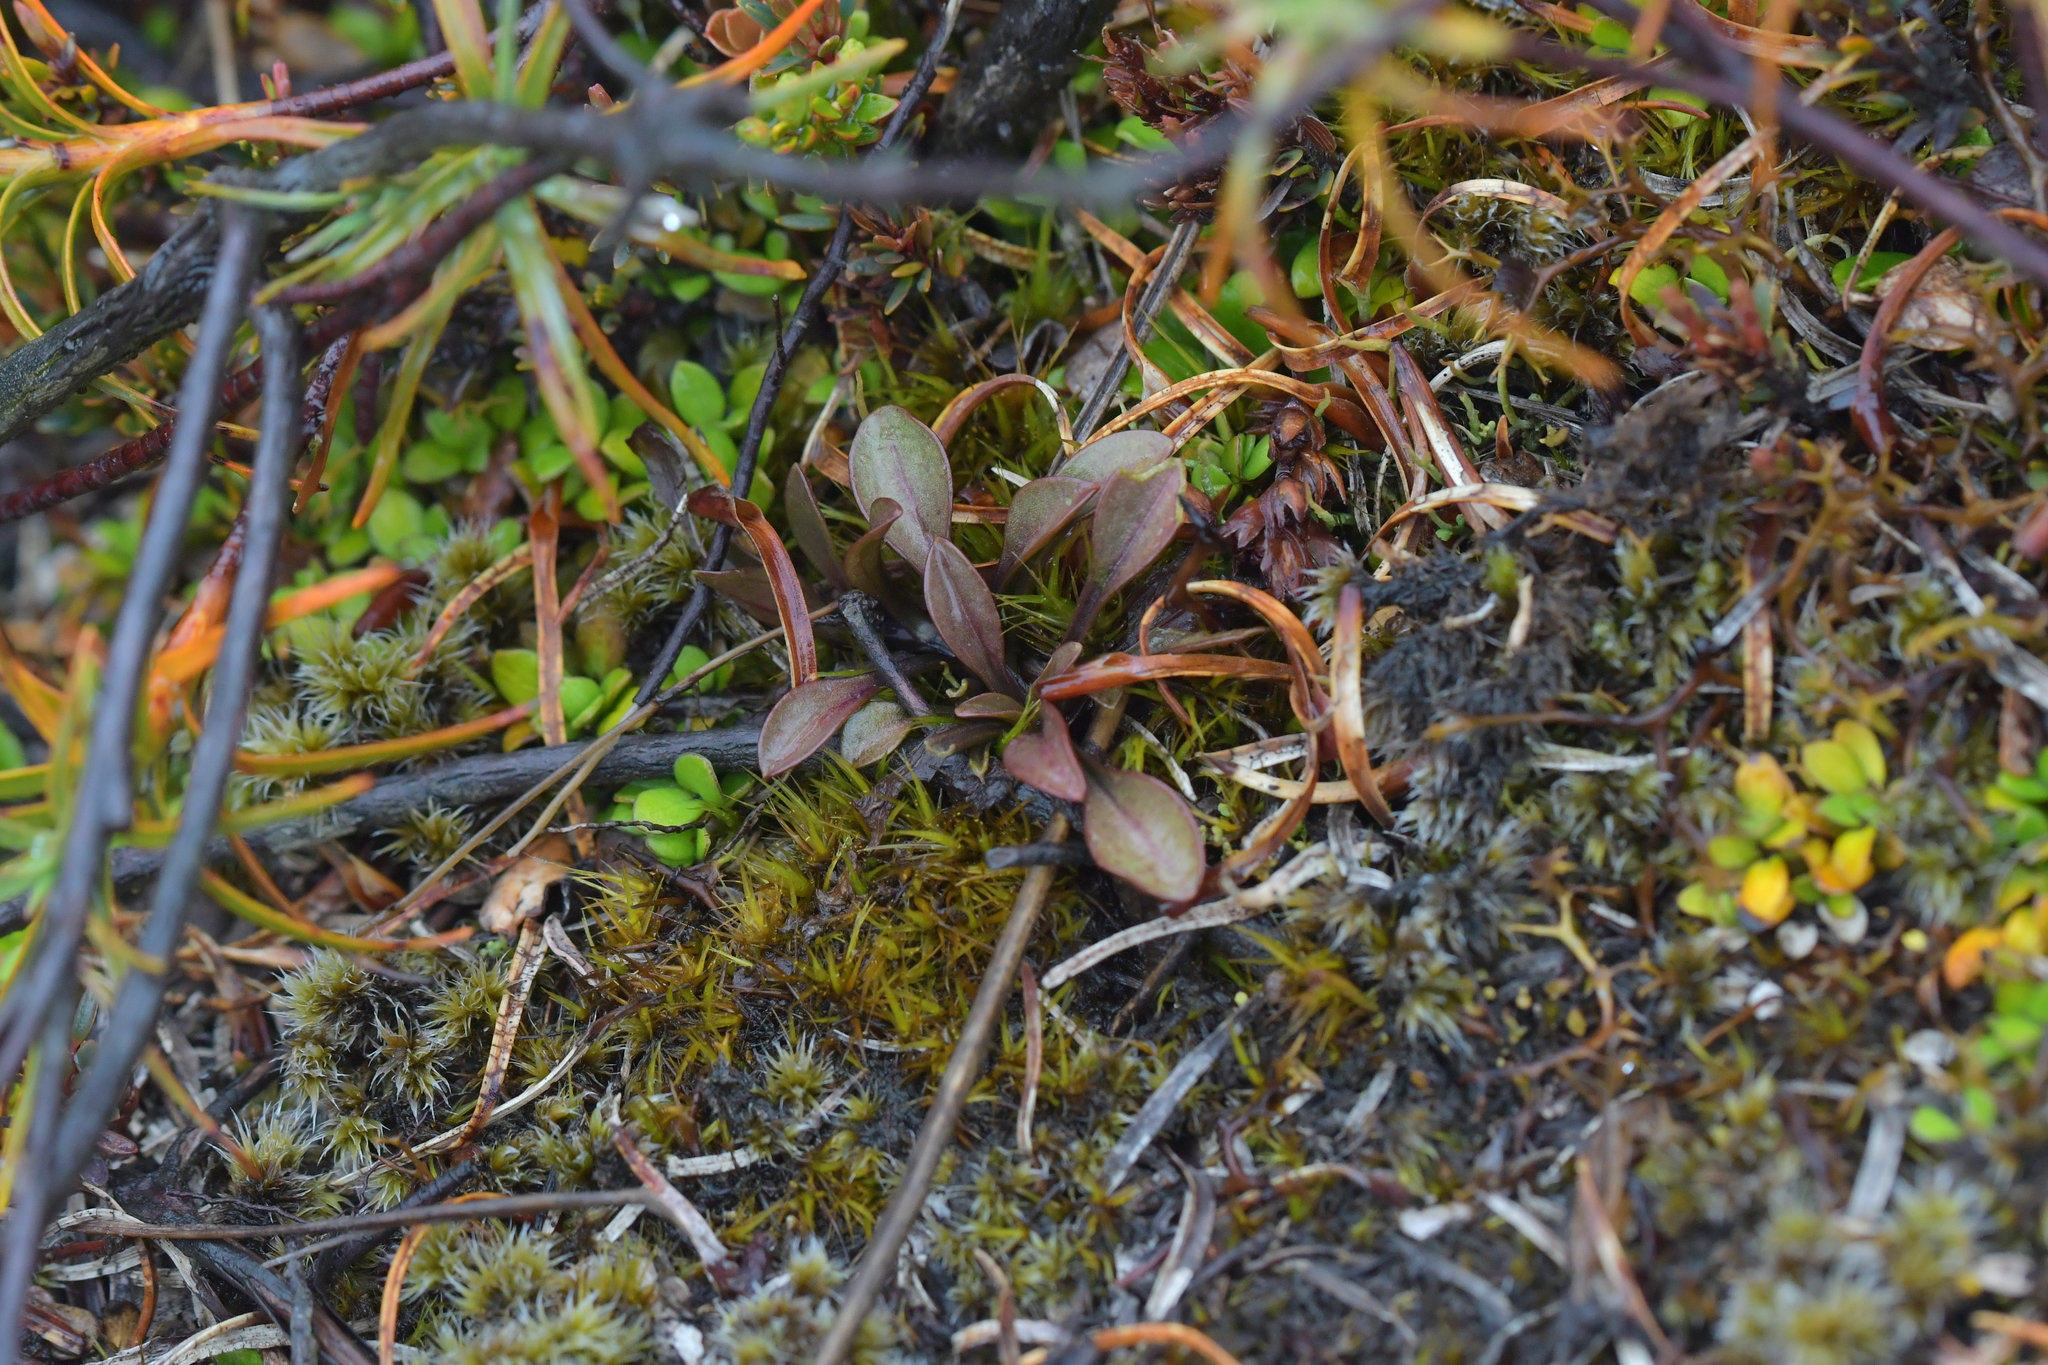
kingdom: Plantae
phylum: Tracheophyta
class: Magnoliopsida
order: Gentianales
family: Gentianaceae
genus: Gentianella
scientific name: Gentianella bellidifolia
